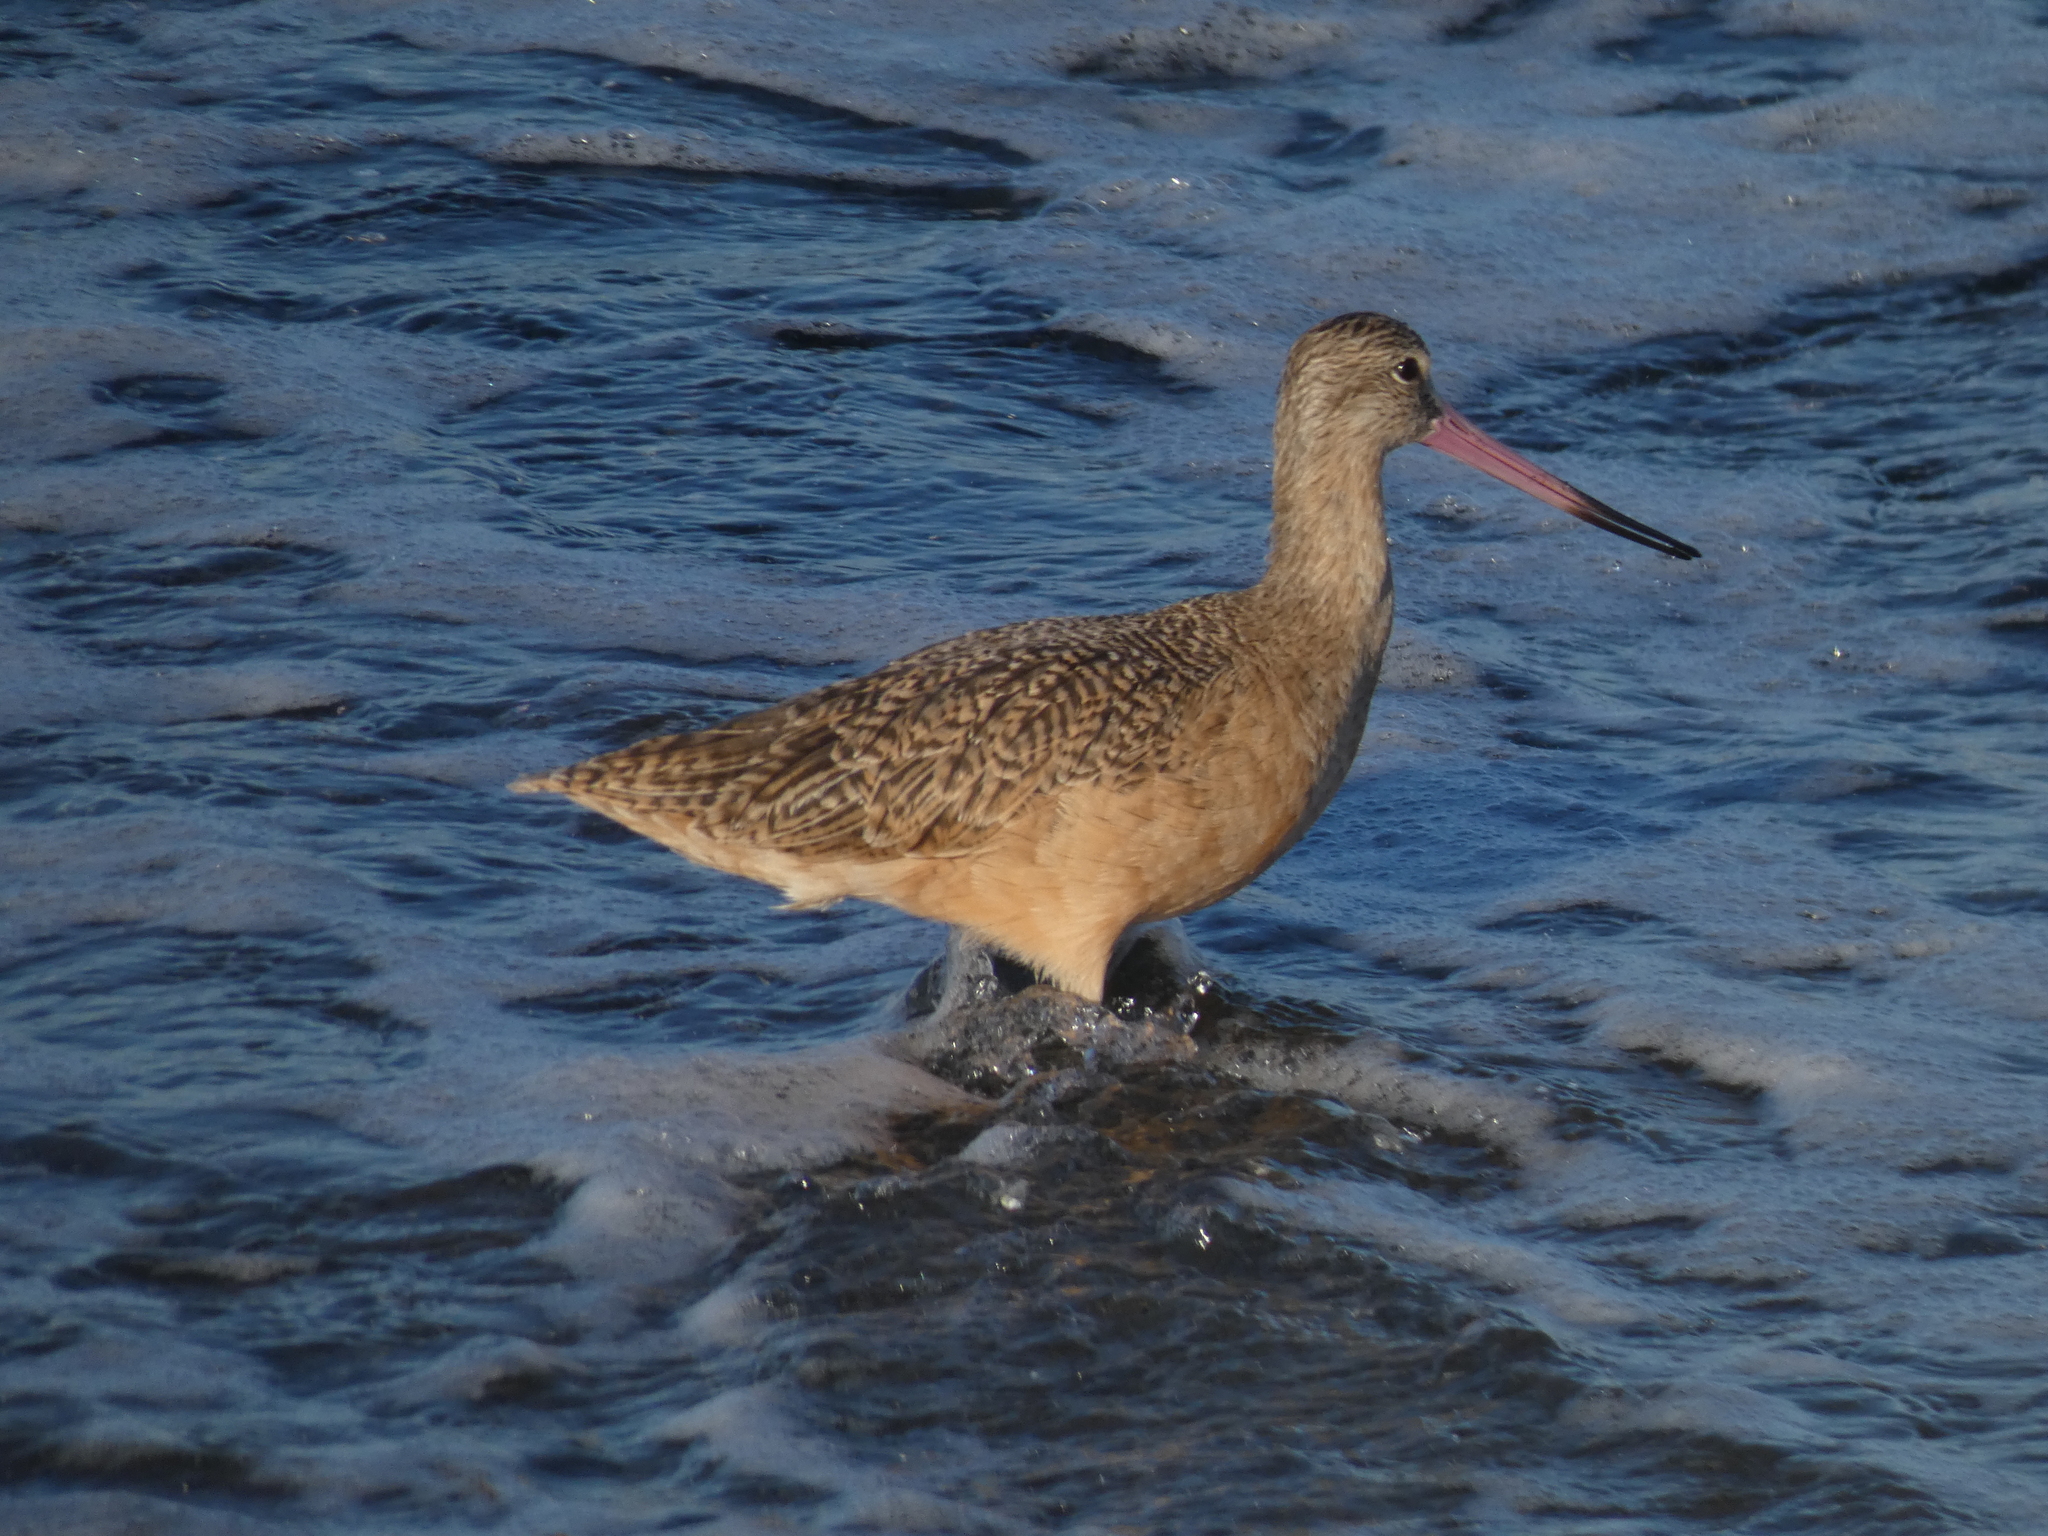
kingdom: Animalia
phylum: Chordata
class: Aves
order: Charadriiformes
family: Scolopacidae
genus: Limosa
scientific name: Limosa fedoa
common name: Marbled godwit
